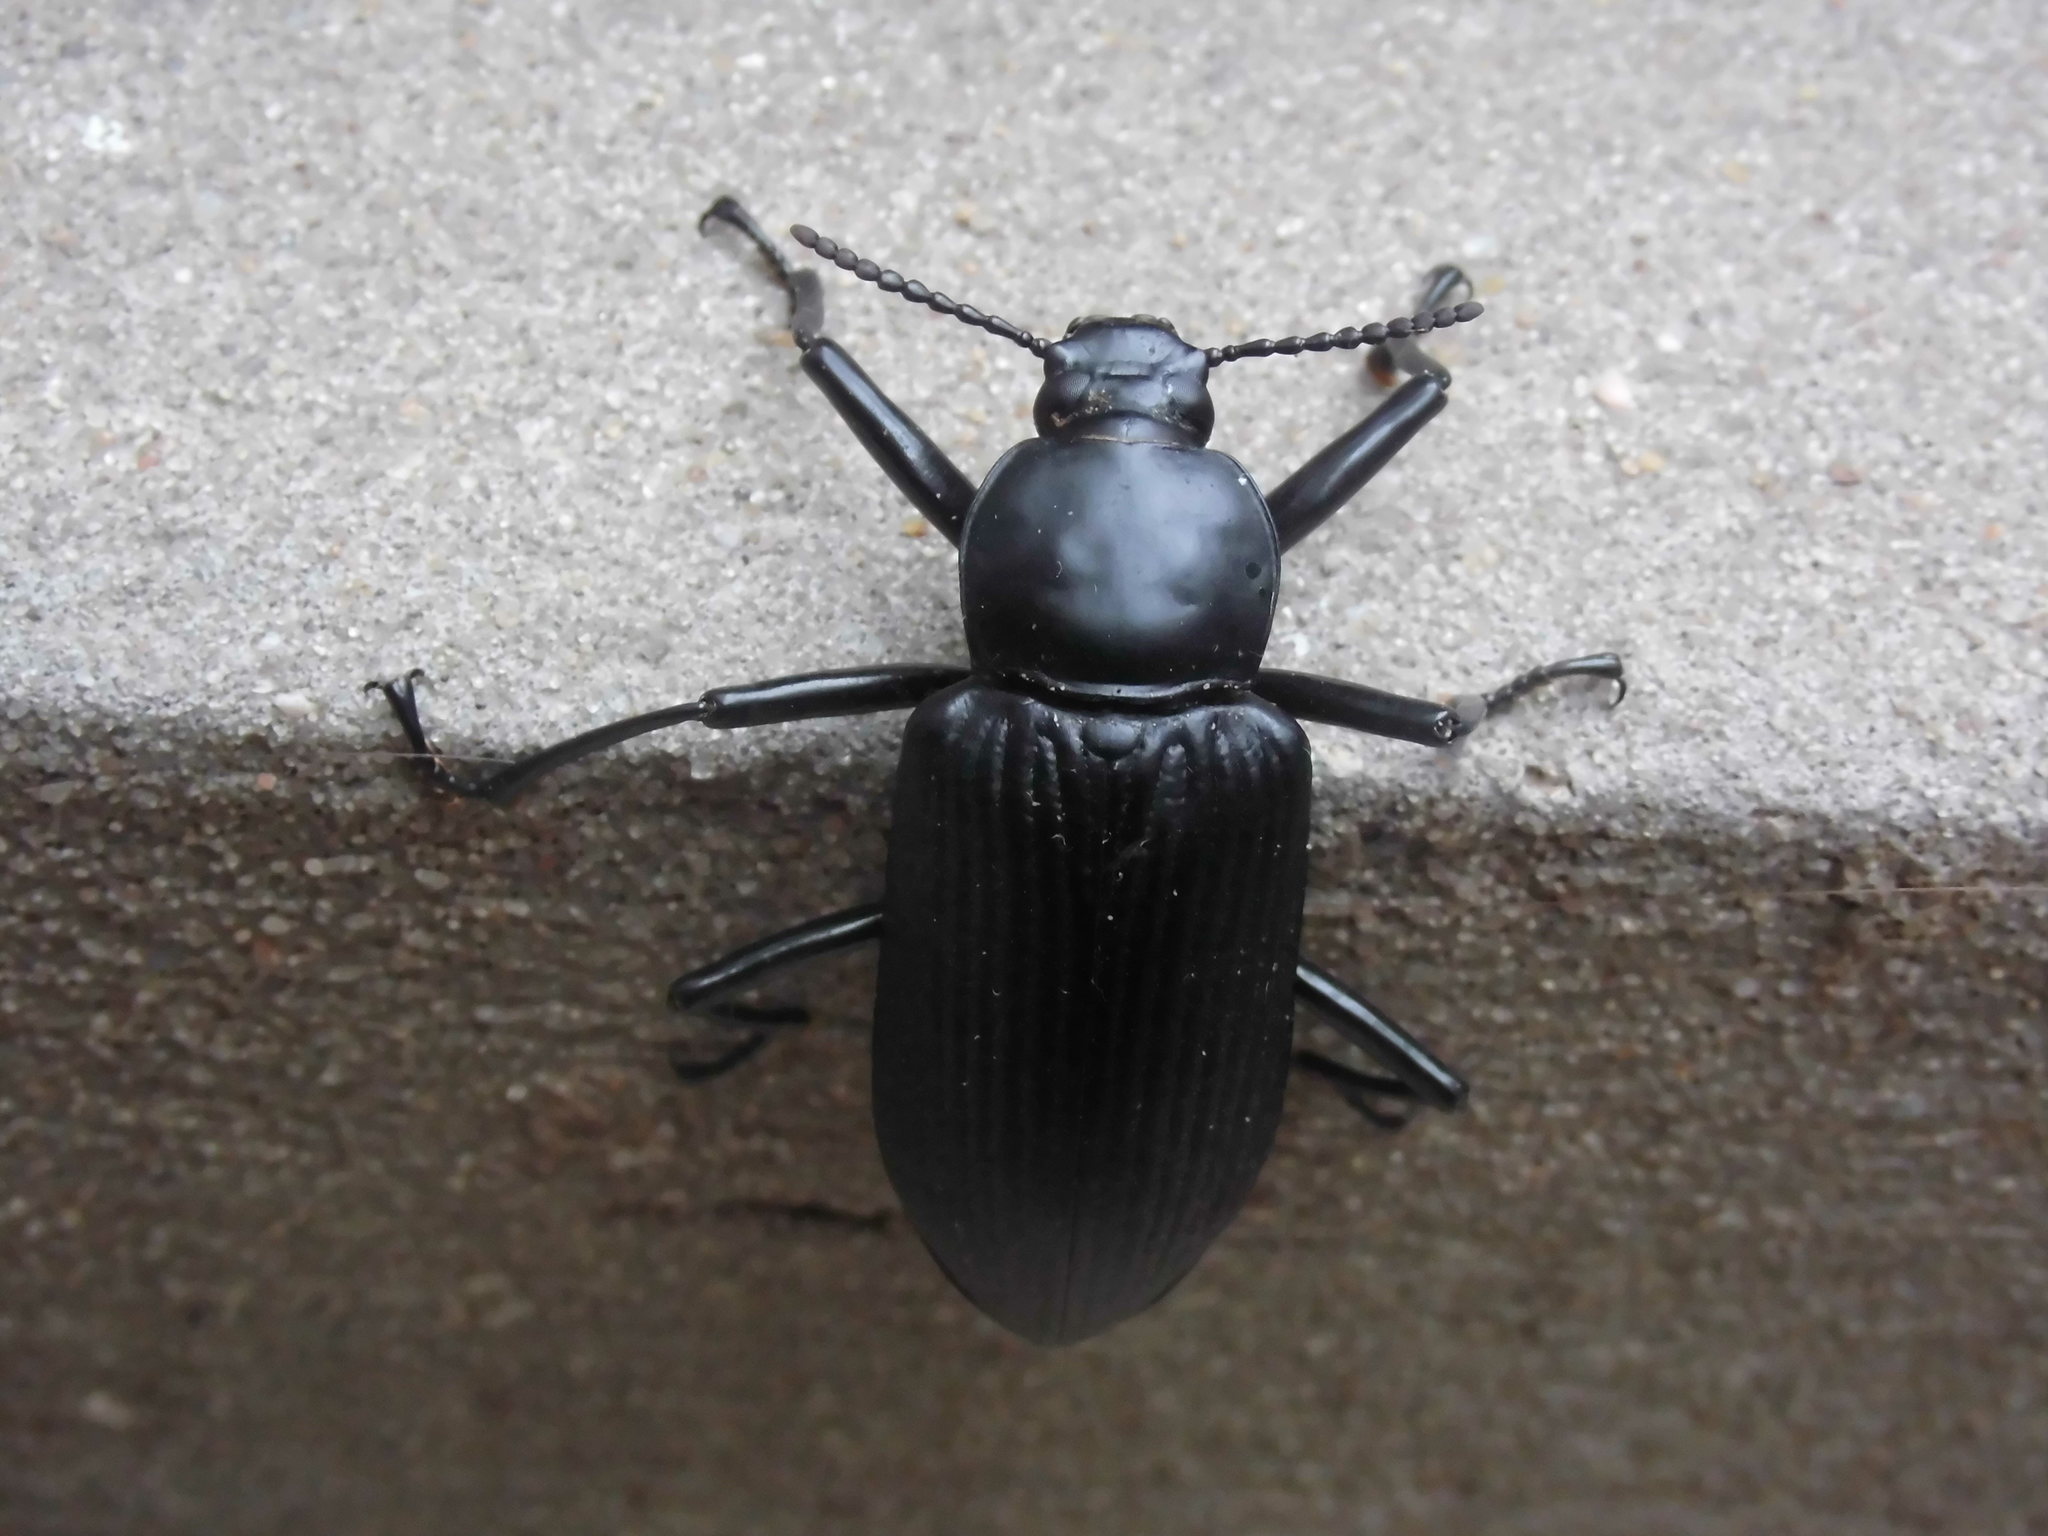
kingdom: Animalia
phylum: Arthropoda
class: Insecta
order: Coleoptera
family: Tenebrionidae
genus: Mylaris
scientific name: Mylaris gigas
